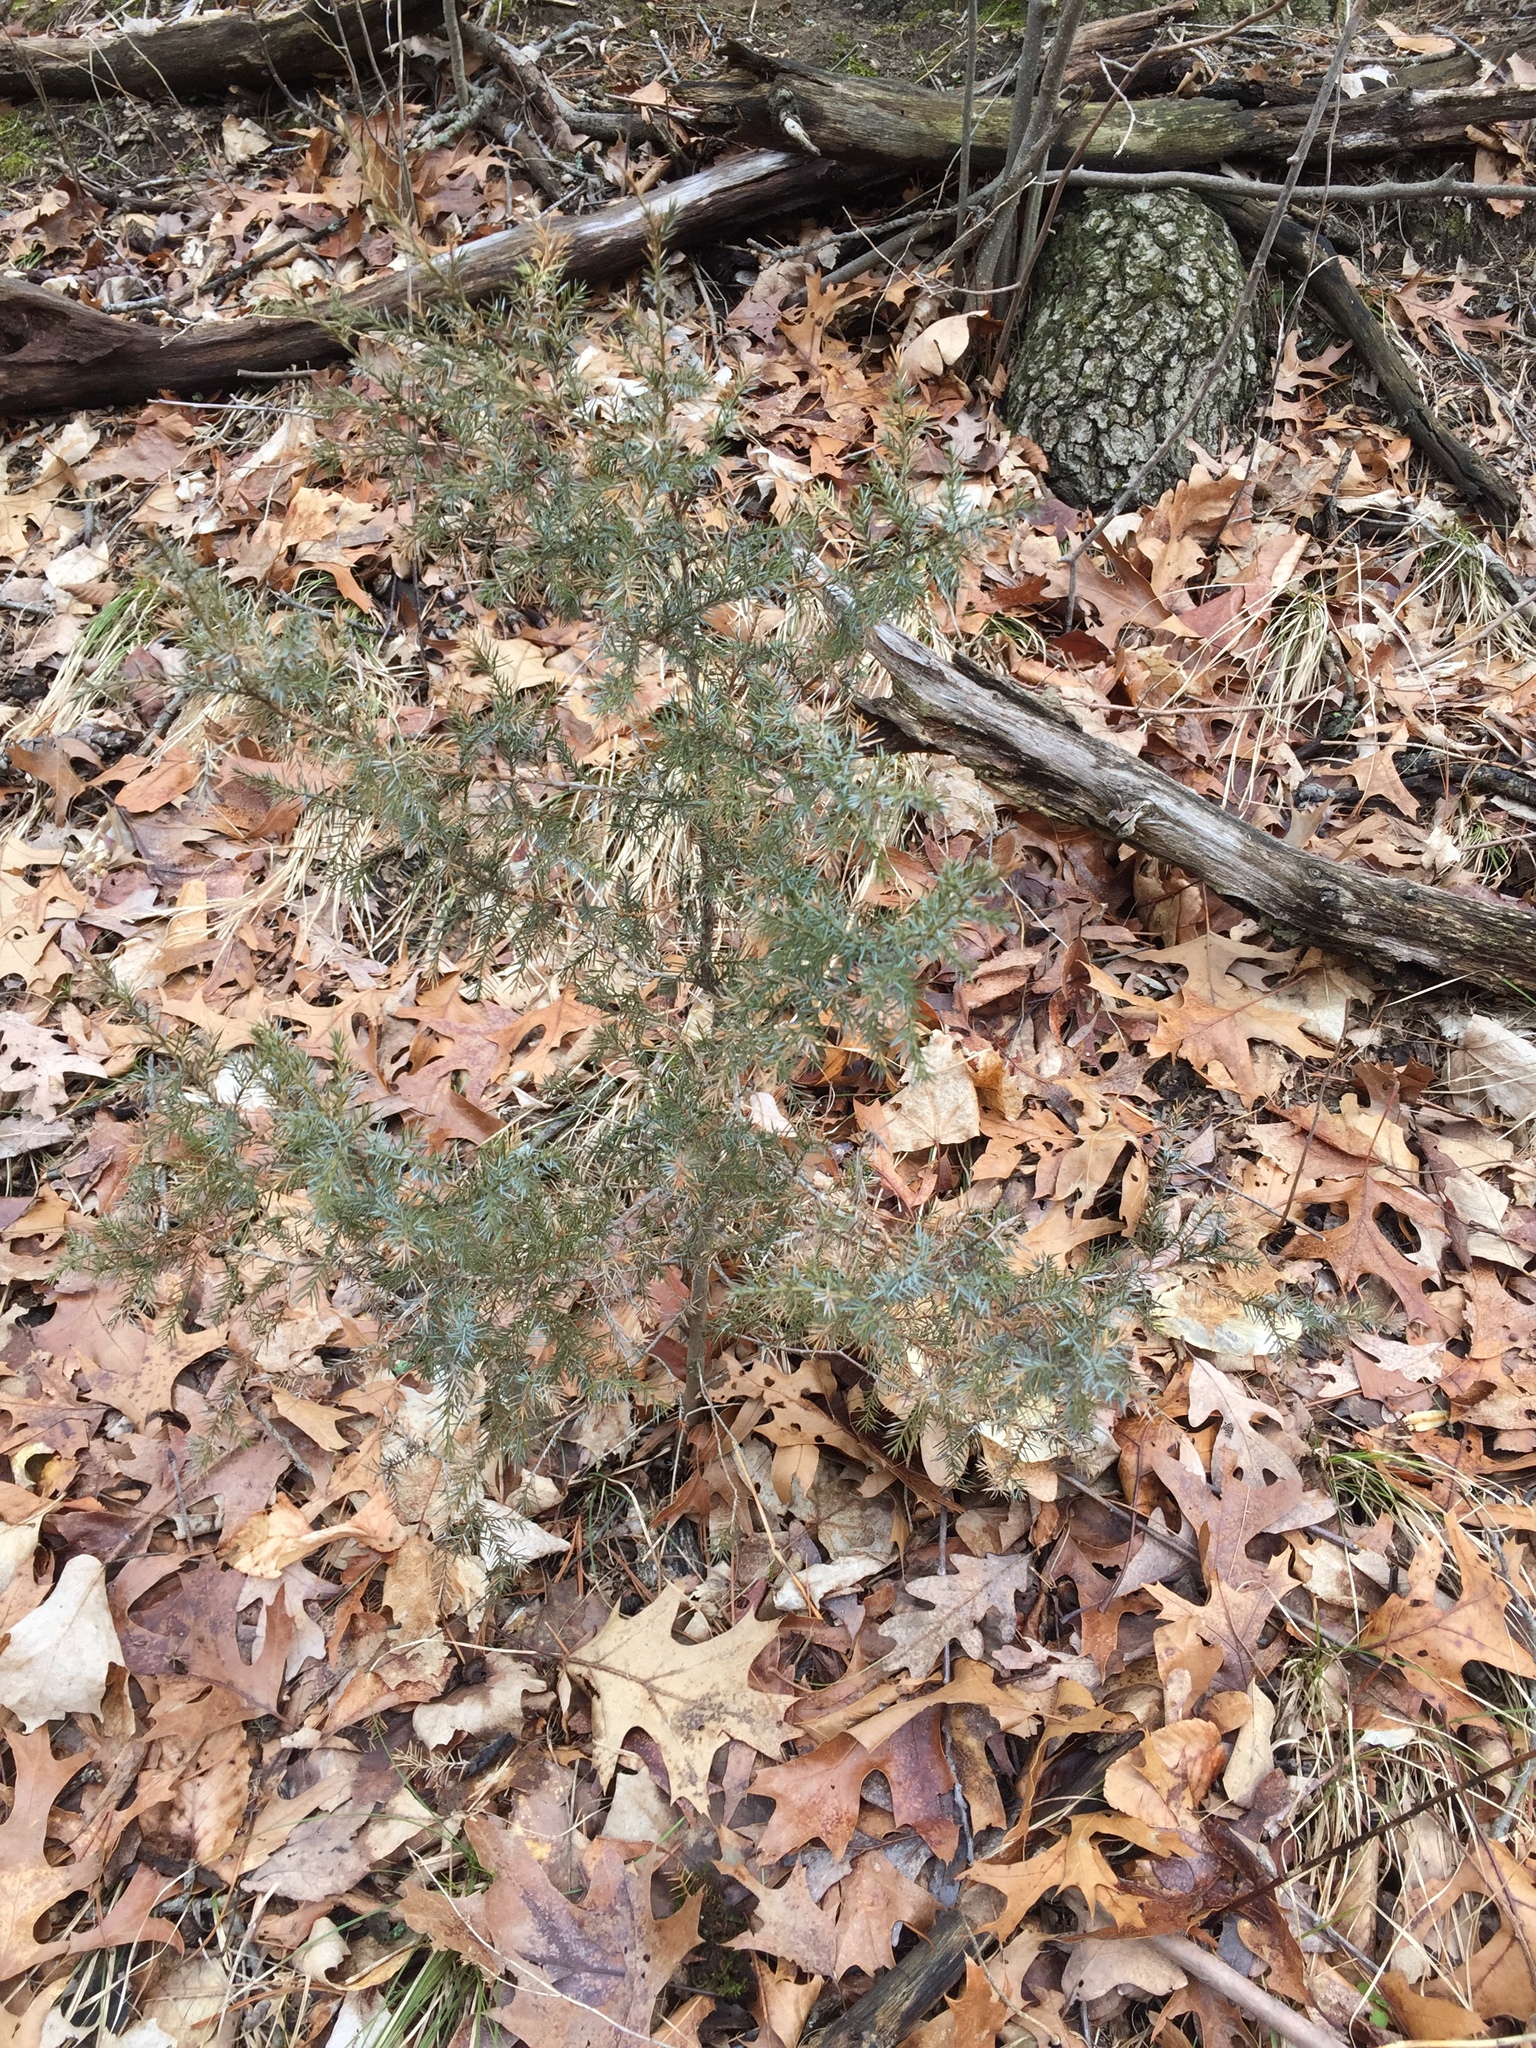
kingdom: Plantae
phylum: Tracheophyta
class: Pinopsida
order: Pinales
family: Cupressaceae
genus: Juniperus
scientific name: Juniperus virginiana
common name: Red juniper
